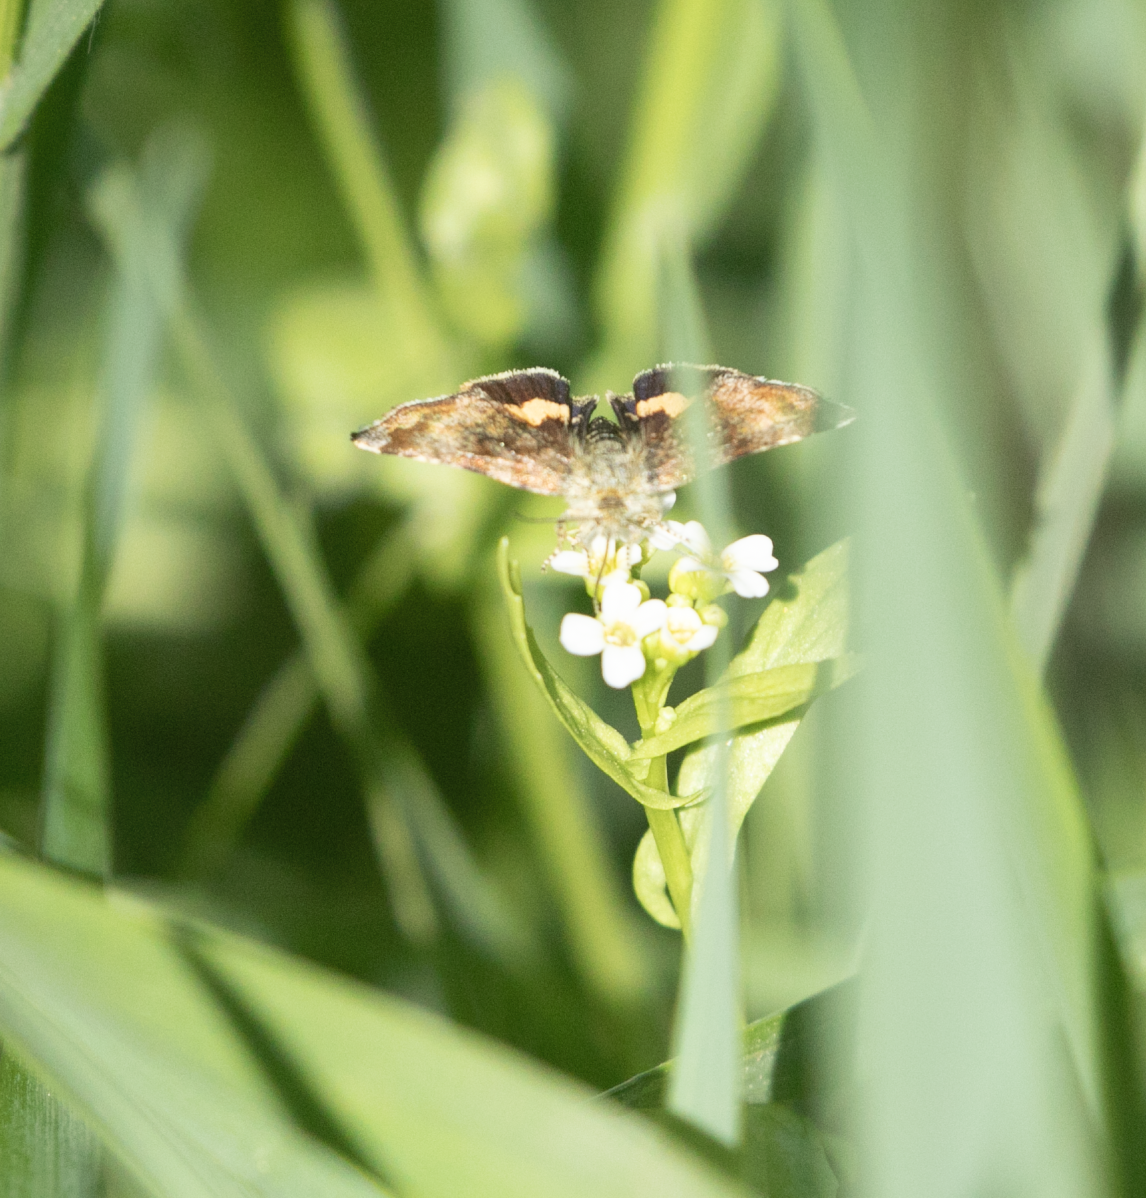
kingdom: Animalia
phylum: Arthropoda
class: Insecta
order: Lepidoptera
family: Noctuidae
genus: Panemeria
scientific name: Panemeria tenebrata
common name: Small yellow underwing
